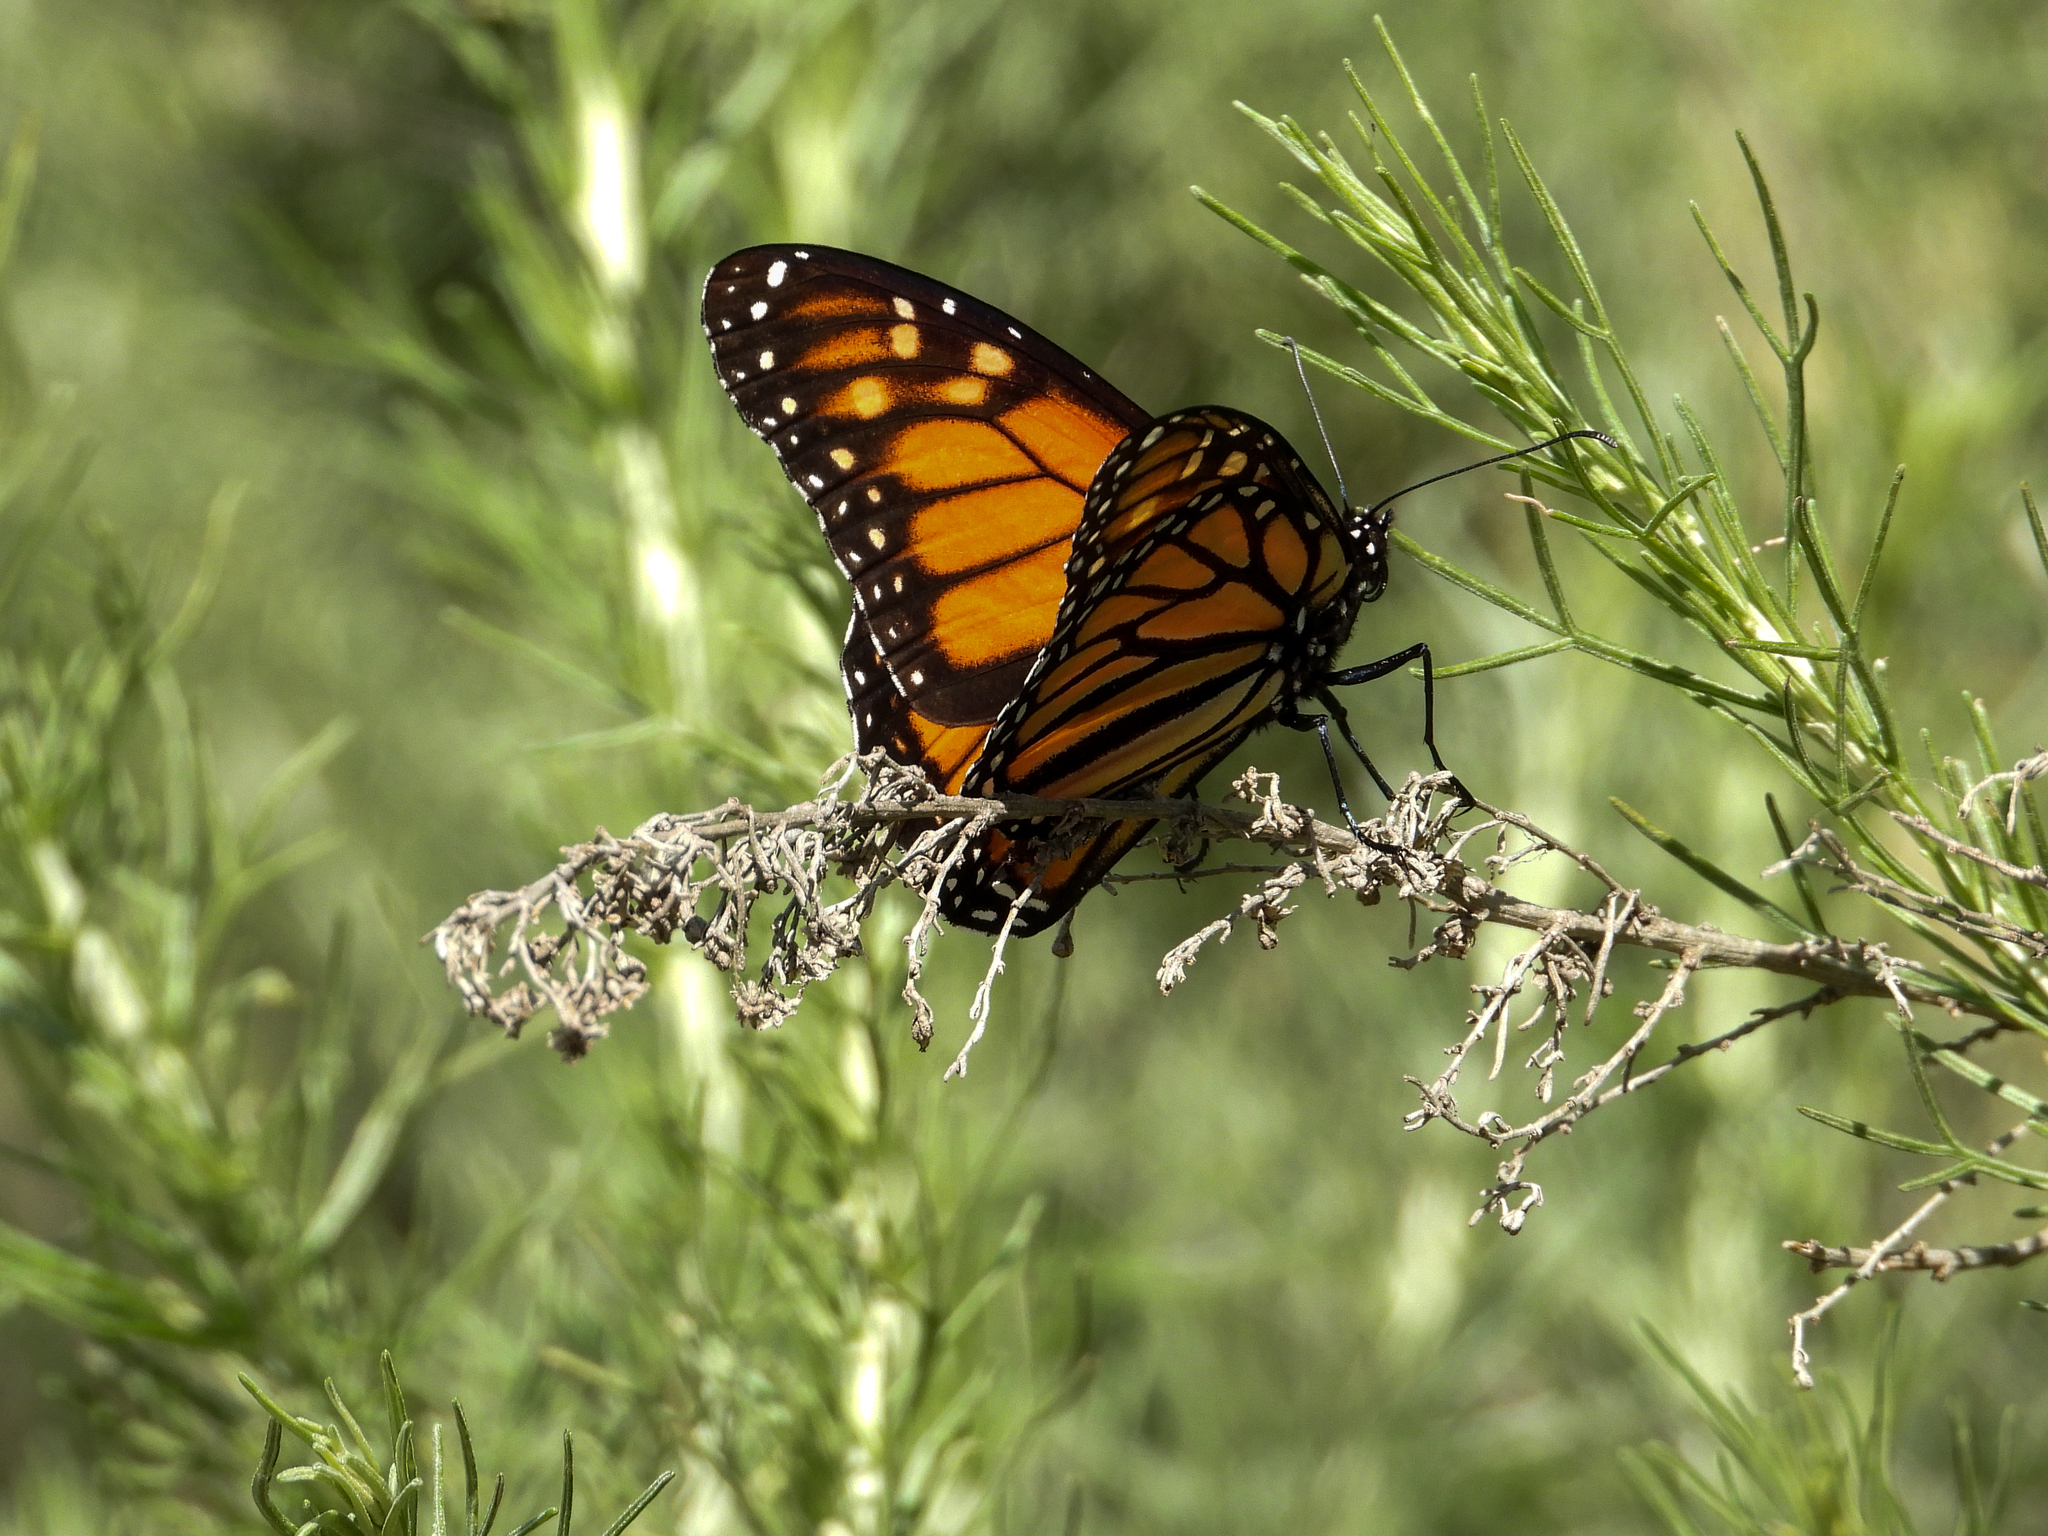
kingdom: Animalia
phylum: Arthropoda
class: Insecta
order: Lepidoptera
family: Nymphalidae
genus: Danaus
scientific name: Danaus plexippus
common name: Monarch
